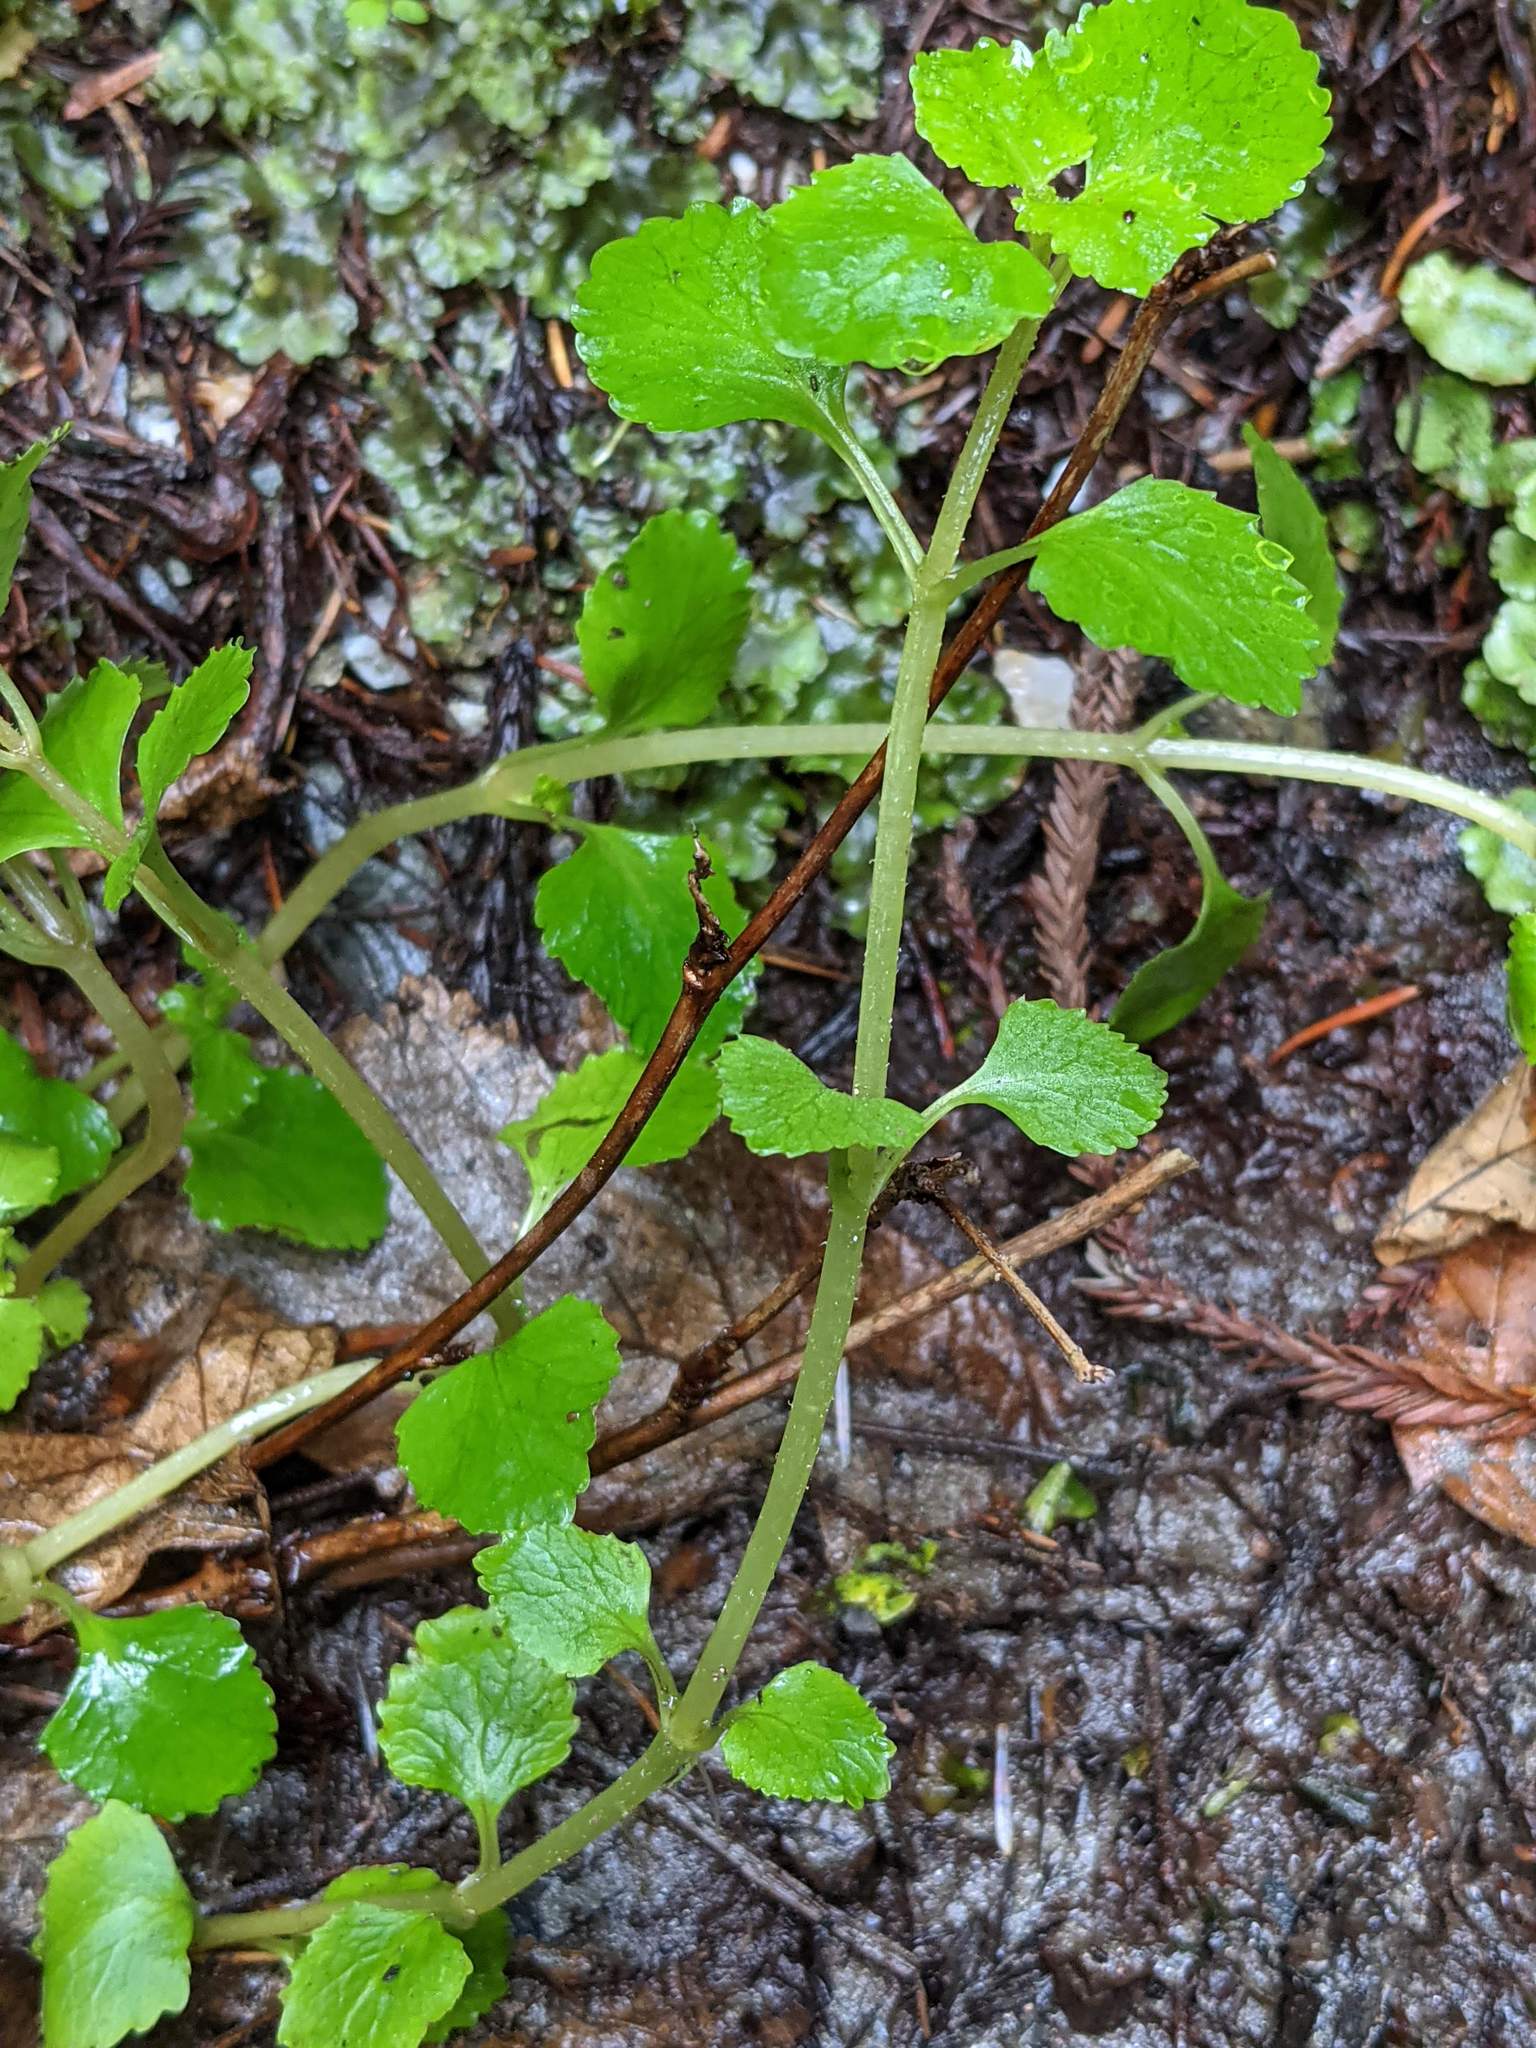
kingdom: Plantae
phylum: Tracheophyta
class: Magnoliopsida
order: Saxifragales
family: Saxifragaceae
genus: Chrysosplenium
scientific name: Chrysosplenium glechomifolium
